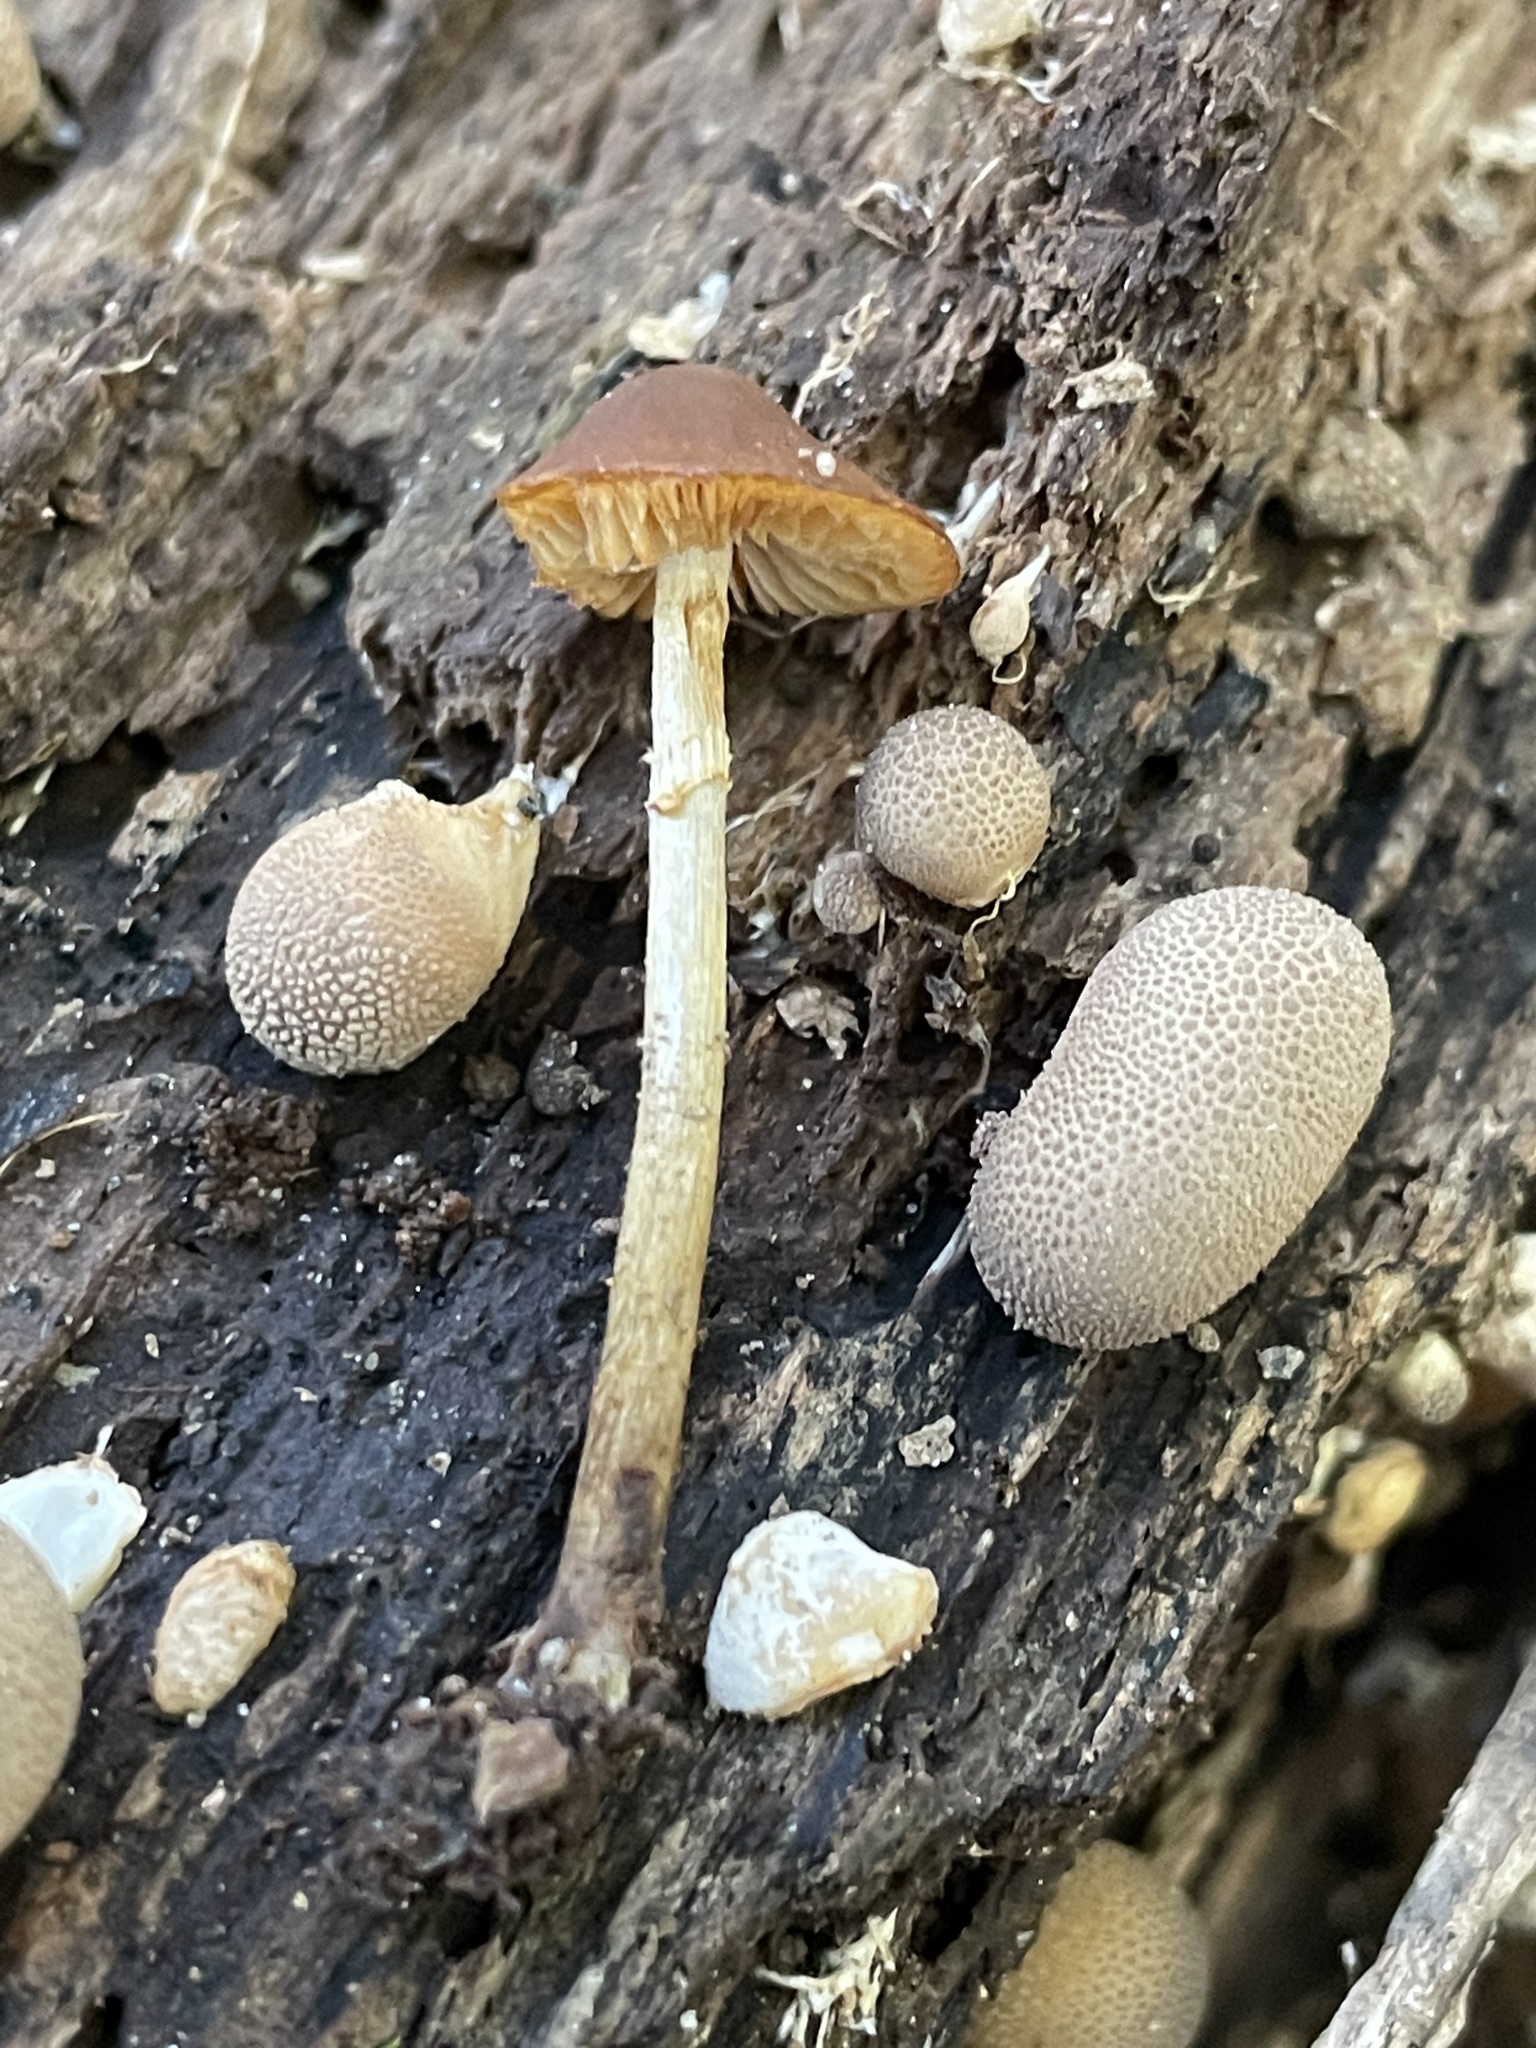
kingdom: Fungi
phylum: Basidiomycota
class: Agaricomycetes
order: Agaricales
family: Bolbitiaceae
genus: Conocybe
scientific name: Conocybe rugosa
